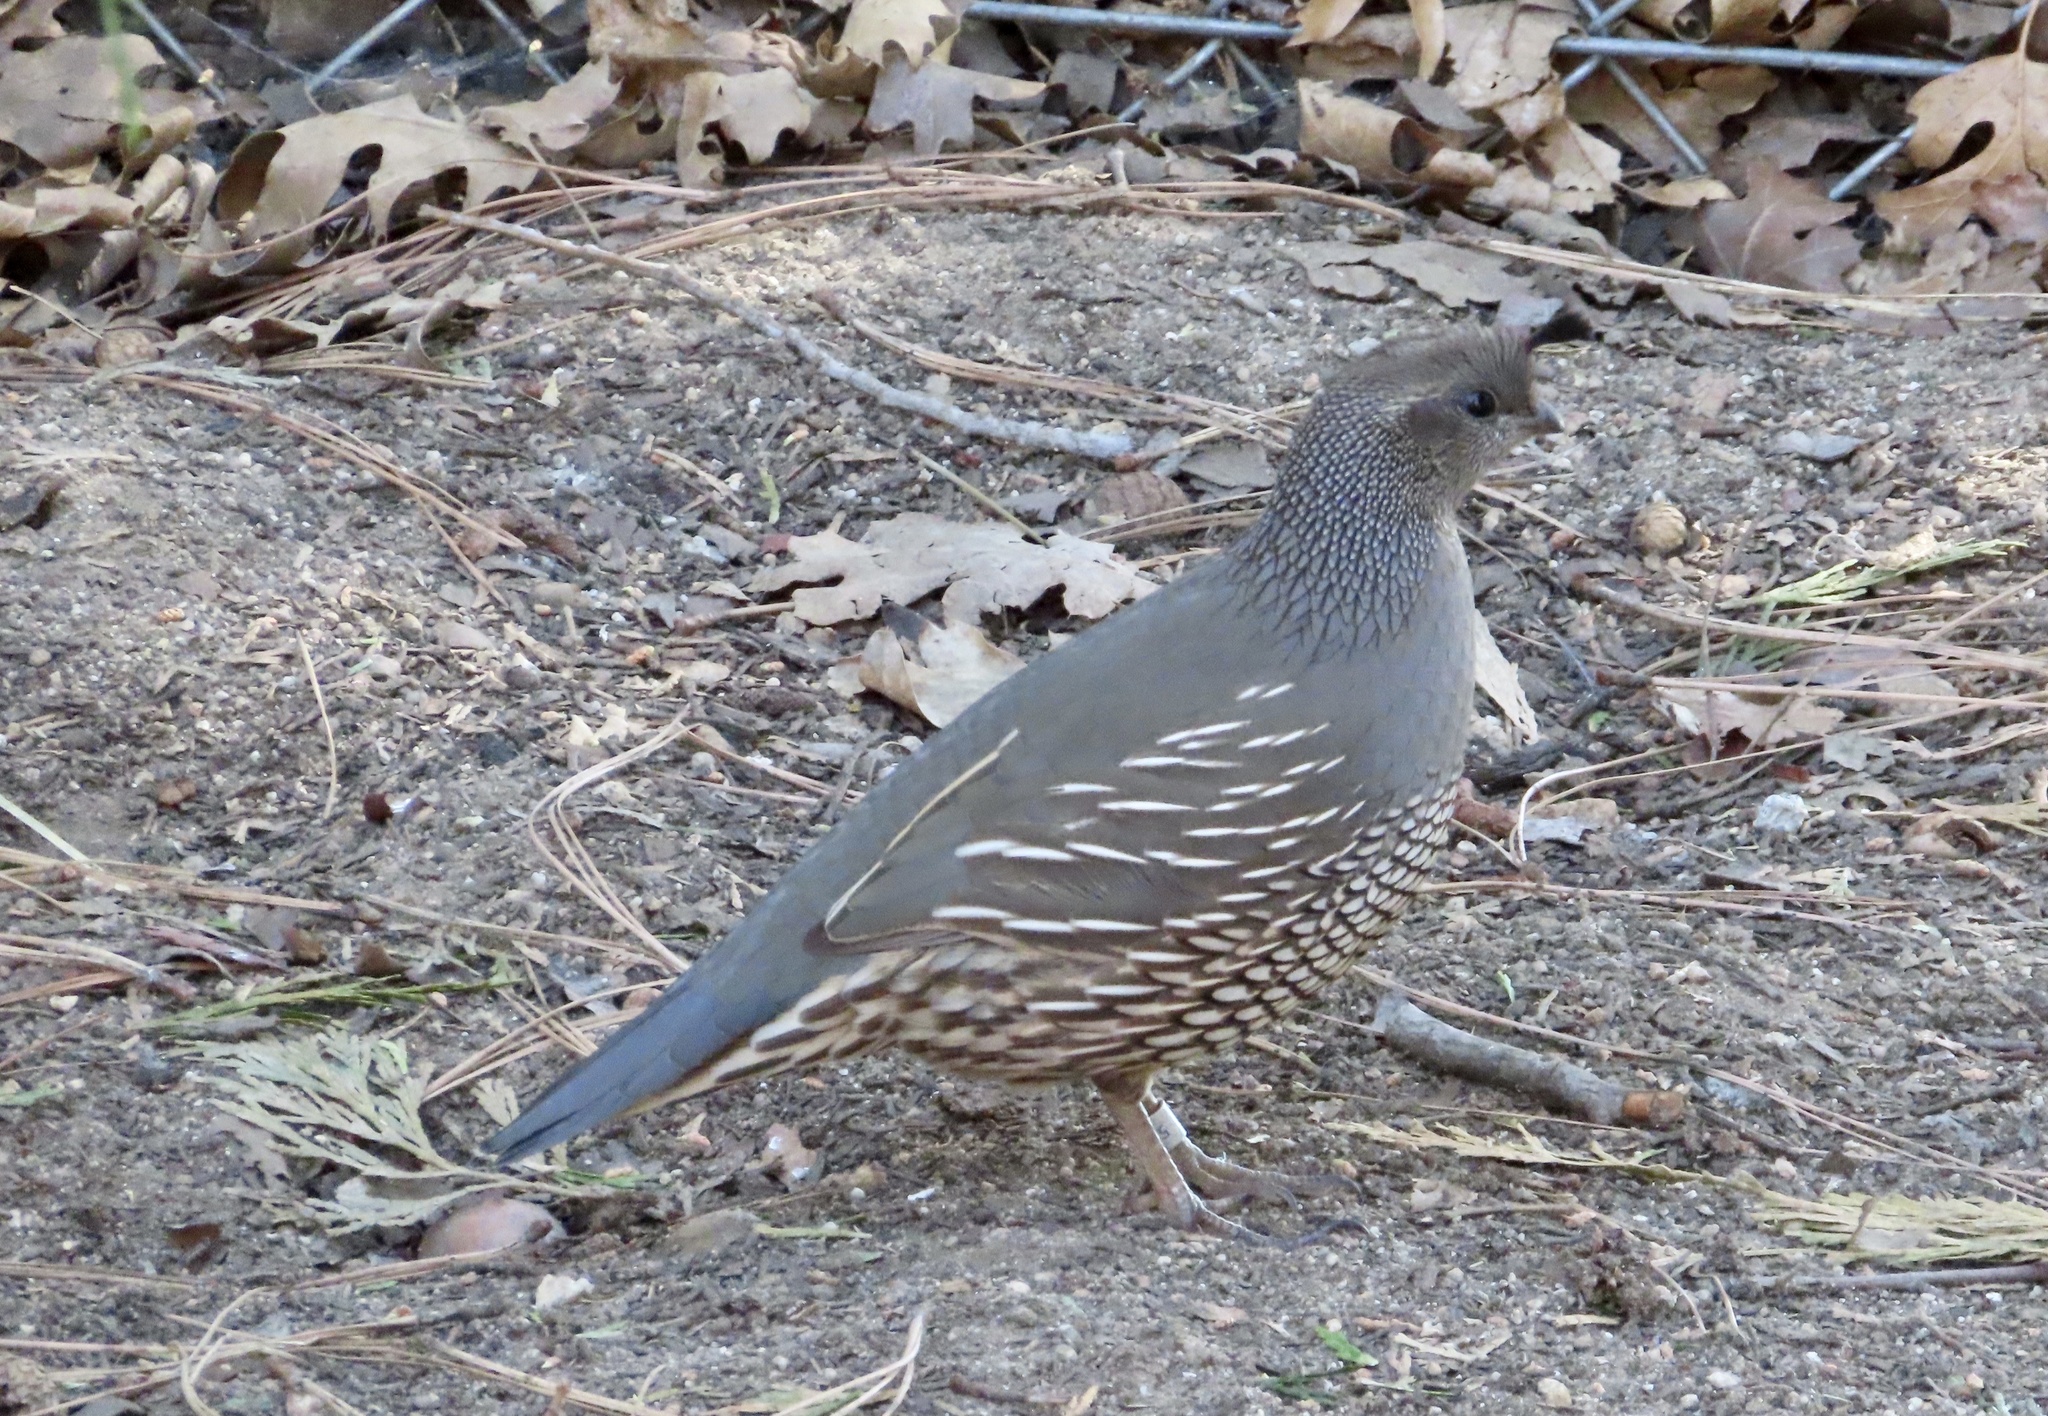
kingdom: Animalia
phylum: Chordata
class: Aves
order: Galliformes
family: Odontophoridae
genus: Callipepla
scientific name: Callipepla californica
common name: California quail
